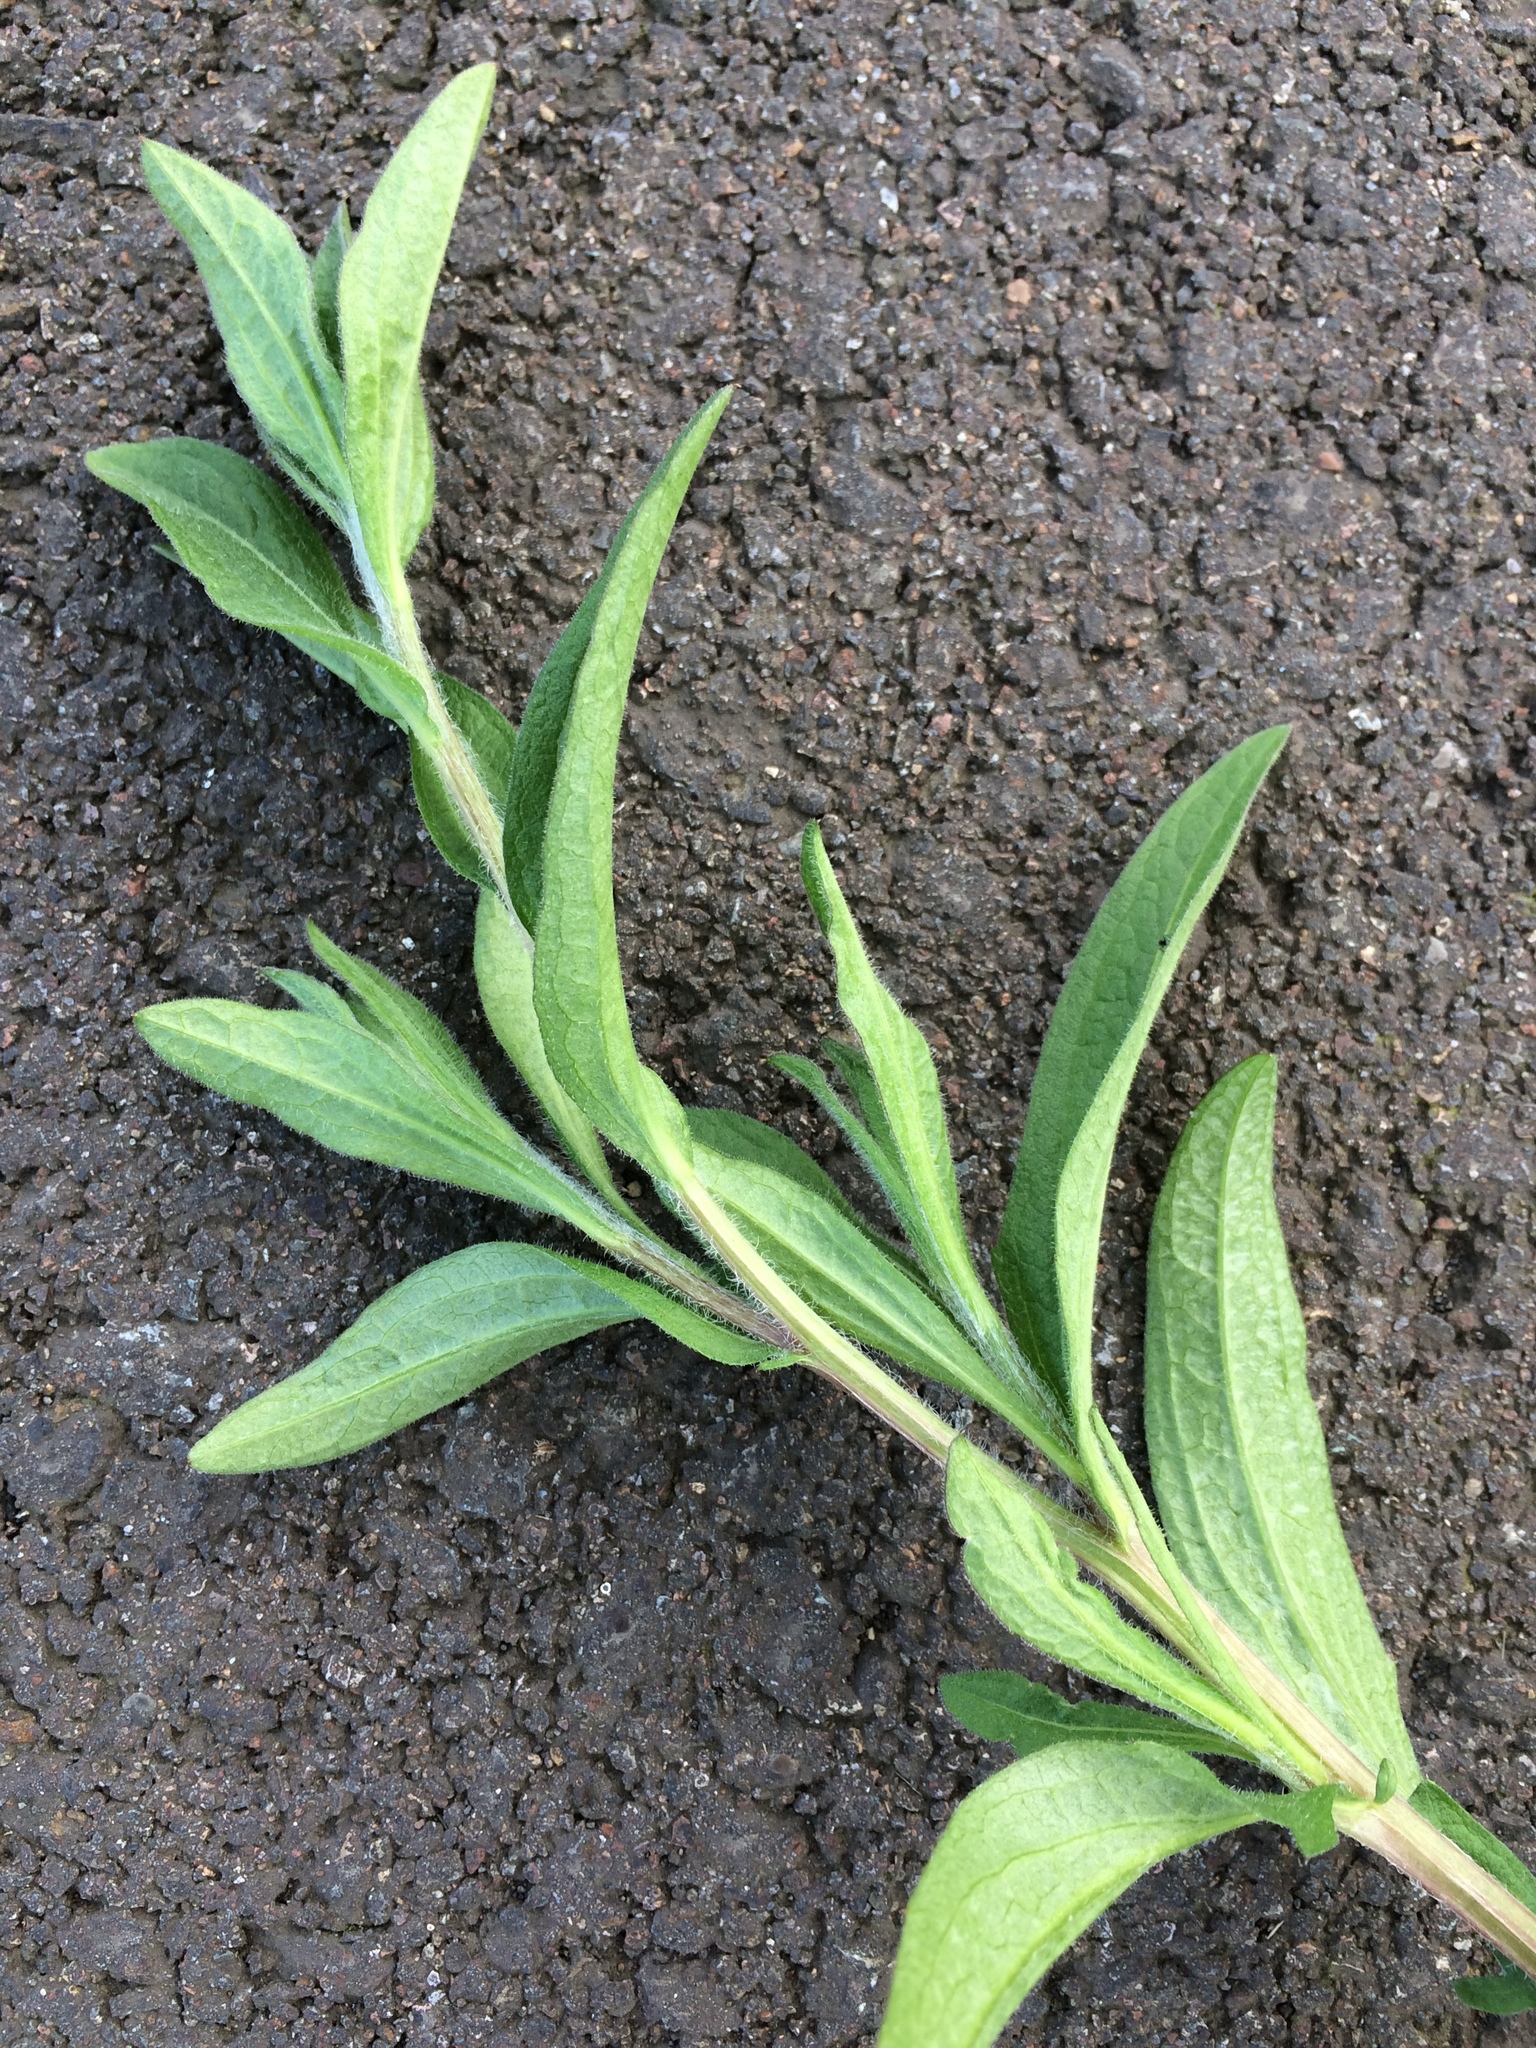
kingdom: Plantae
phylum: Tracheophyta
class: Magnoliopsida
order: Asterales
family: Asteraceae
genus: Centaurea
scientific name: Centaurea montana
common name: Perennial cornflower
